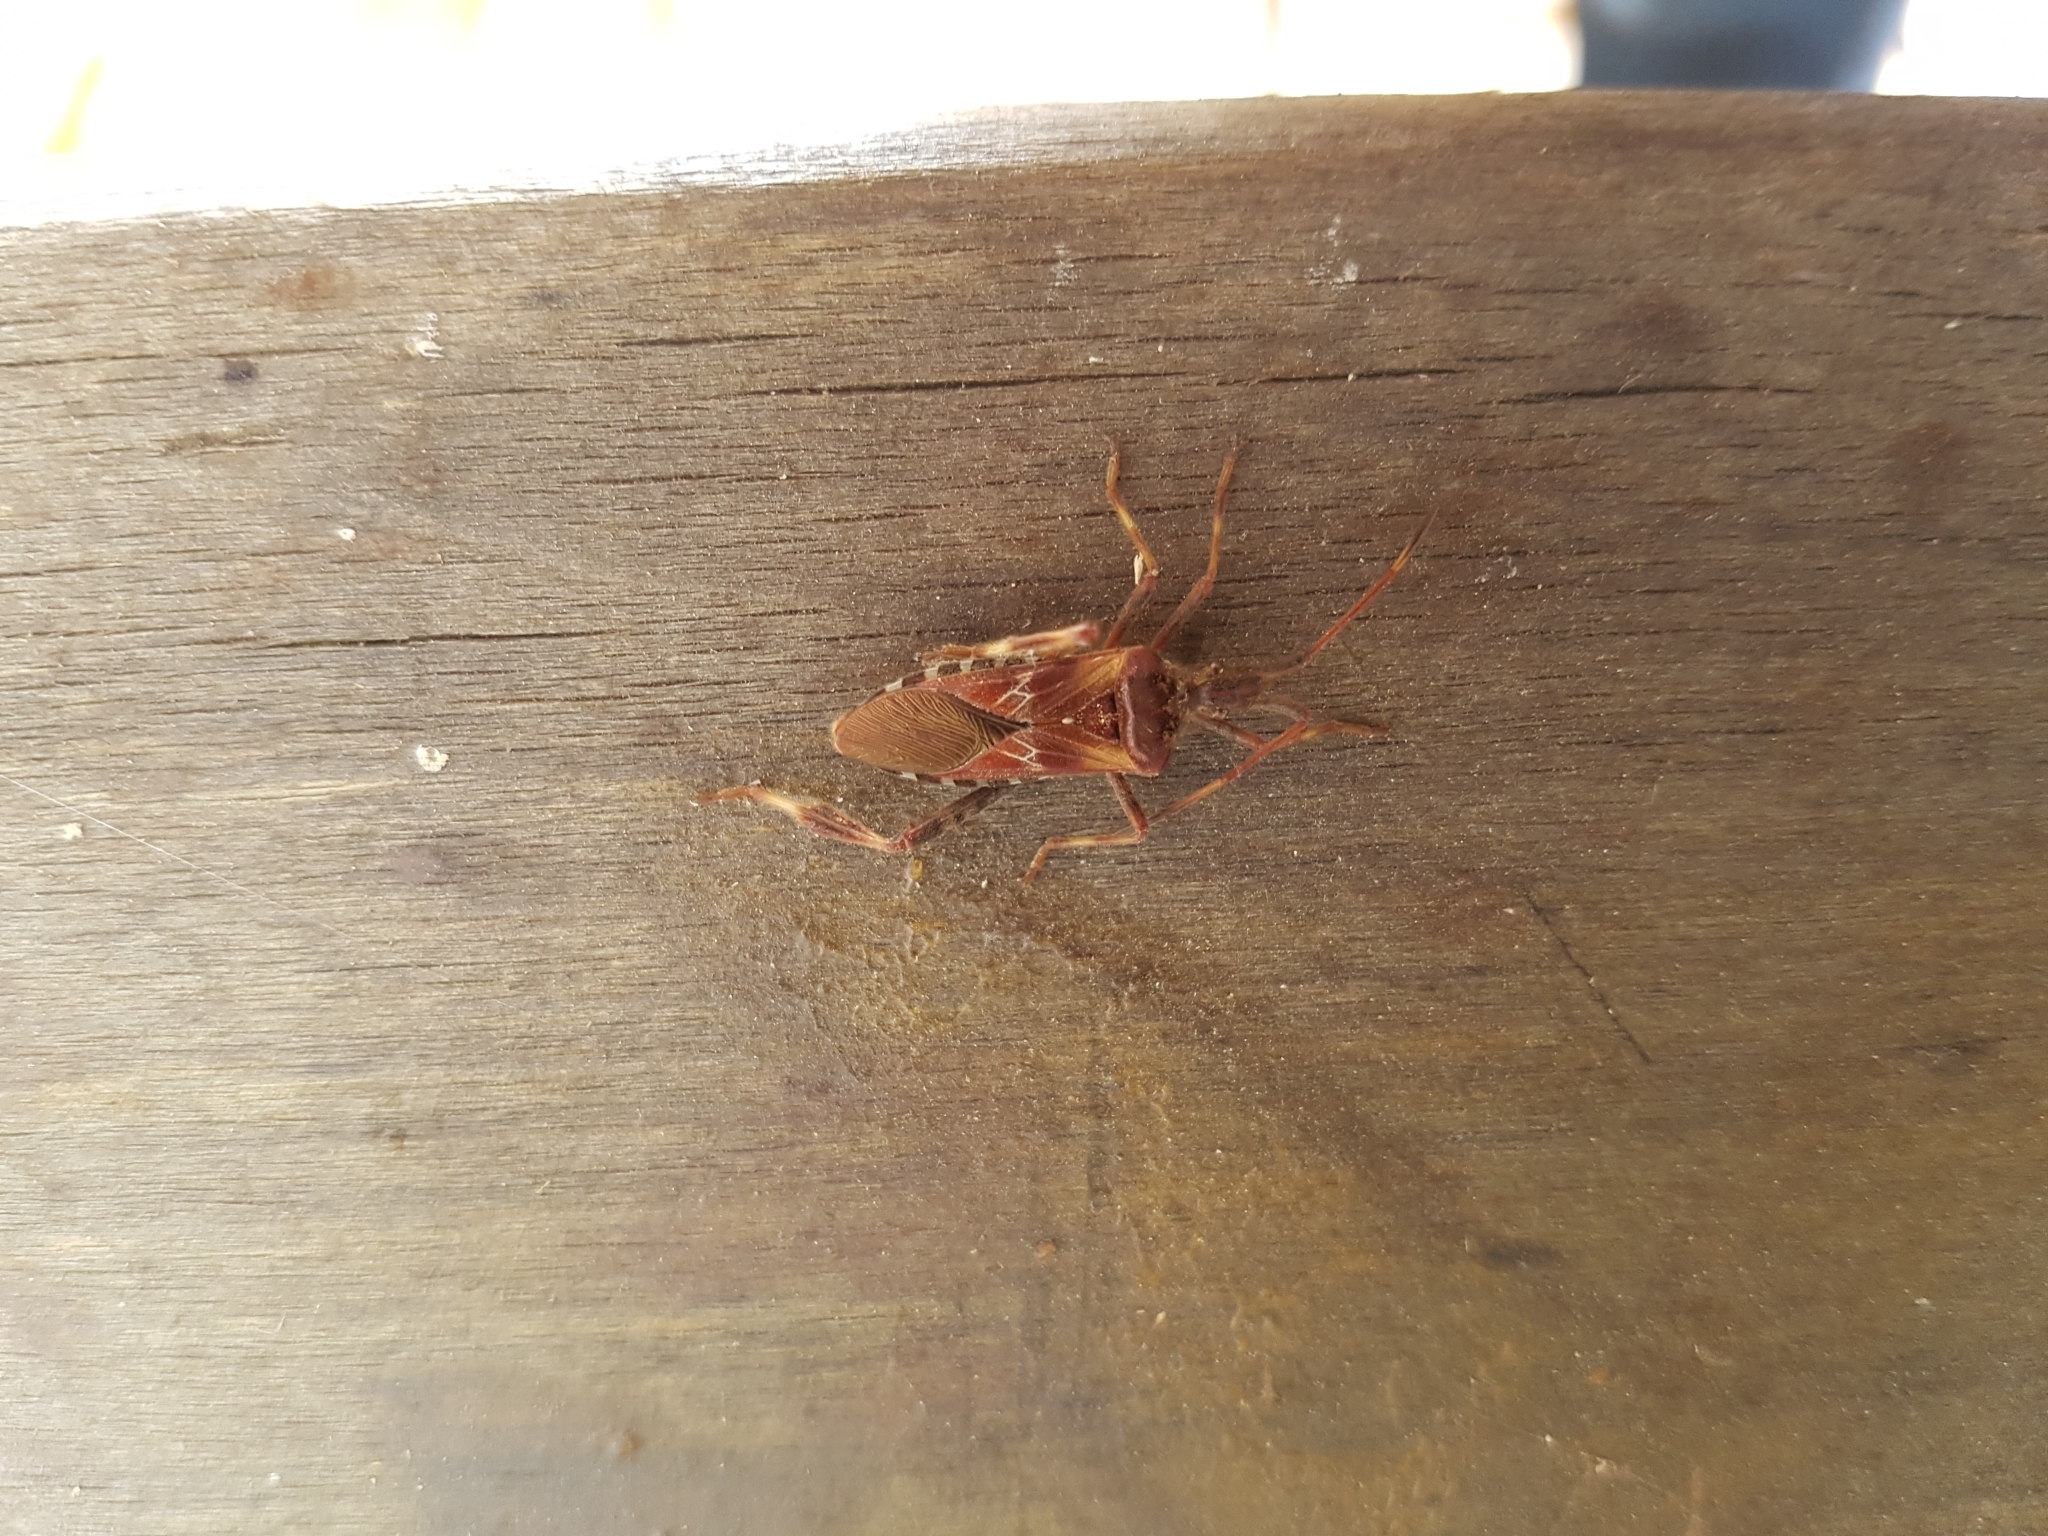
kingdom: Animalia
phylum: Arthropoda
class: Insecta
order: Hemiptera
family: Coreidae
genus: Leptoglossus
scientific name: Leptoglossus occidentalis
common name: Western conifer-seed bug
